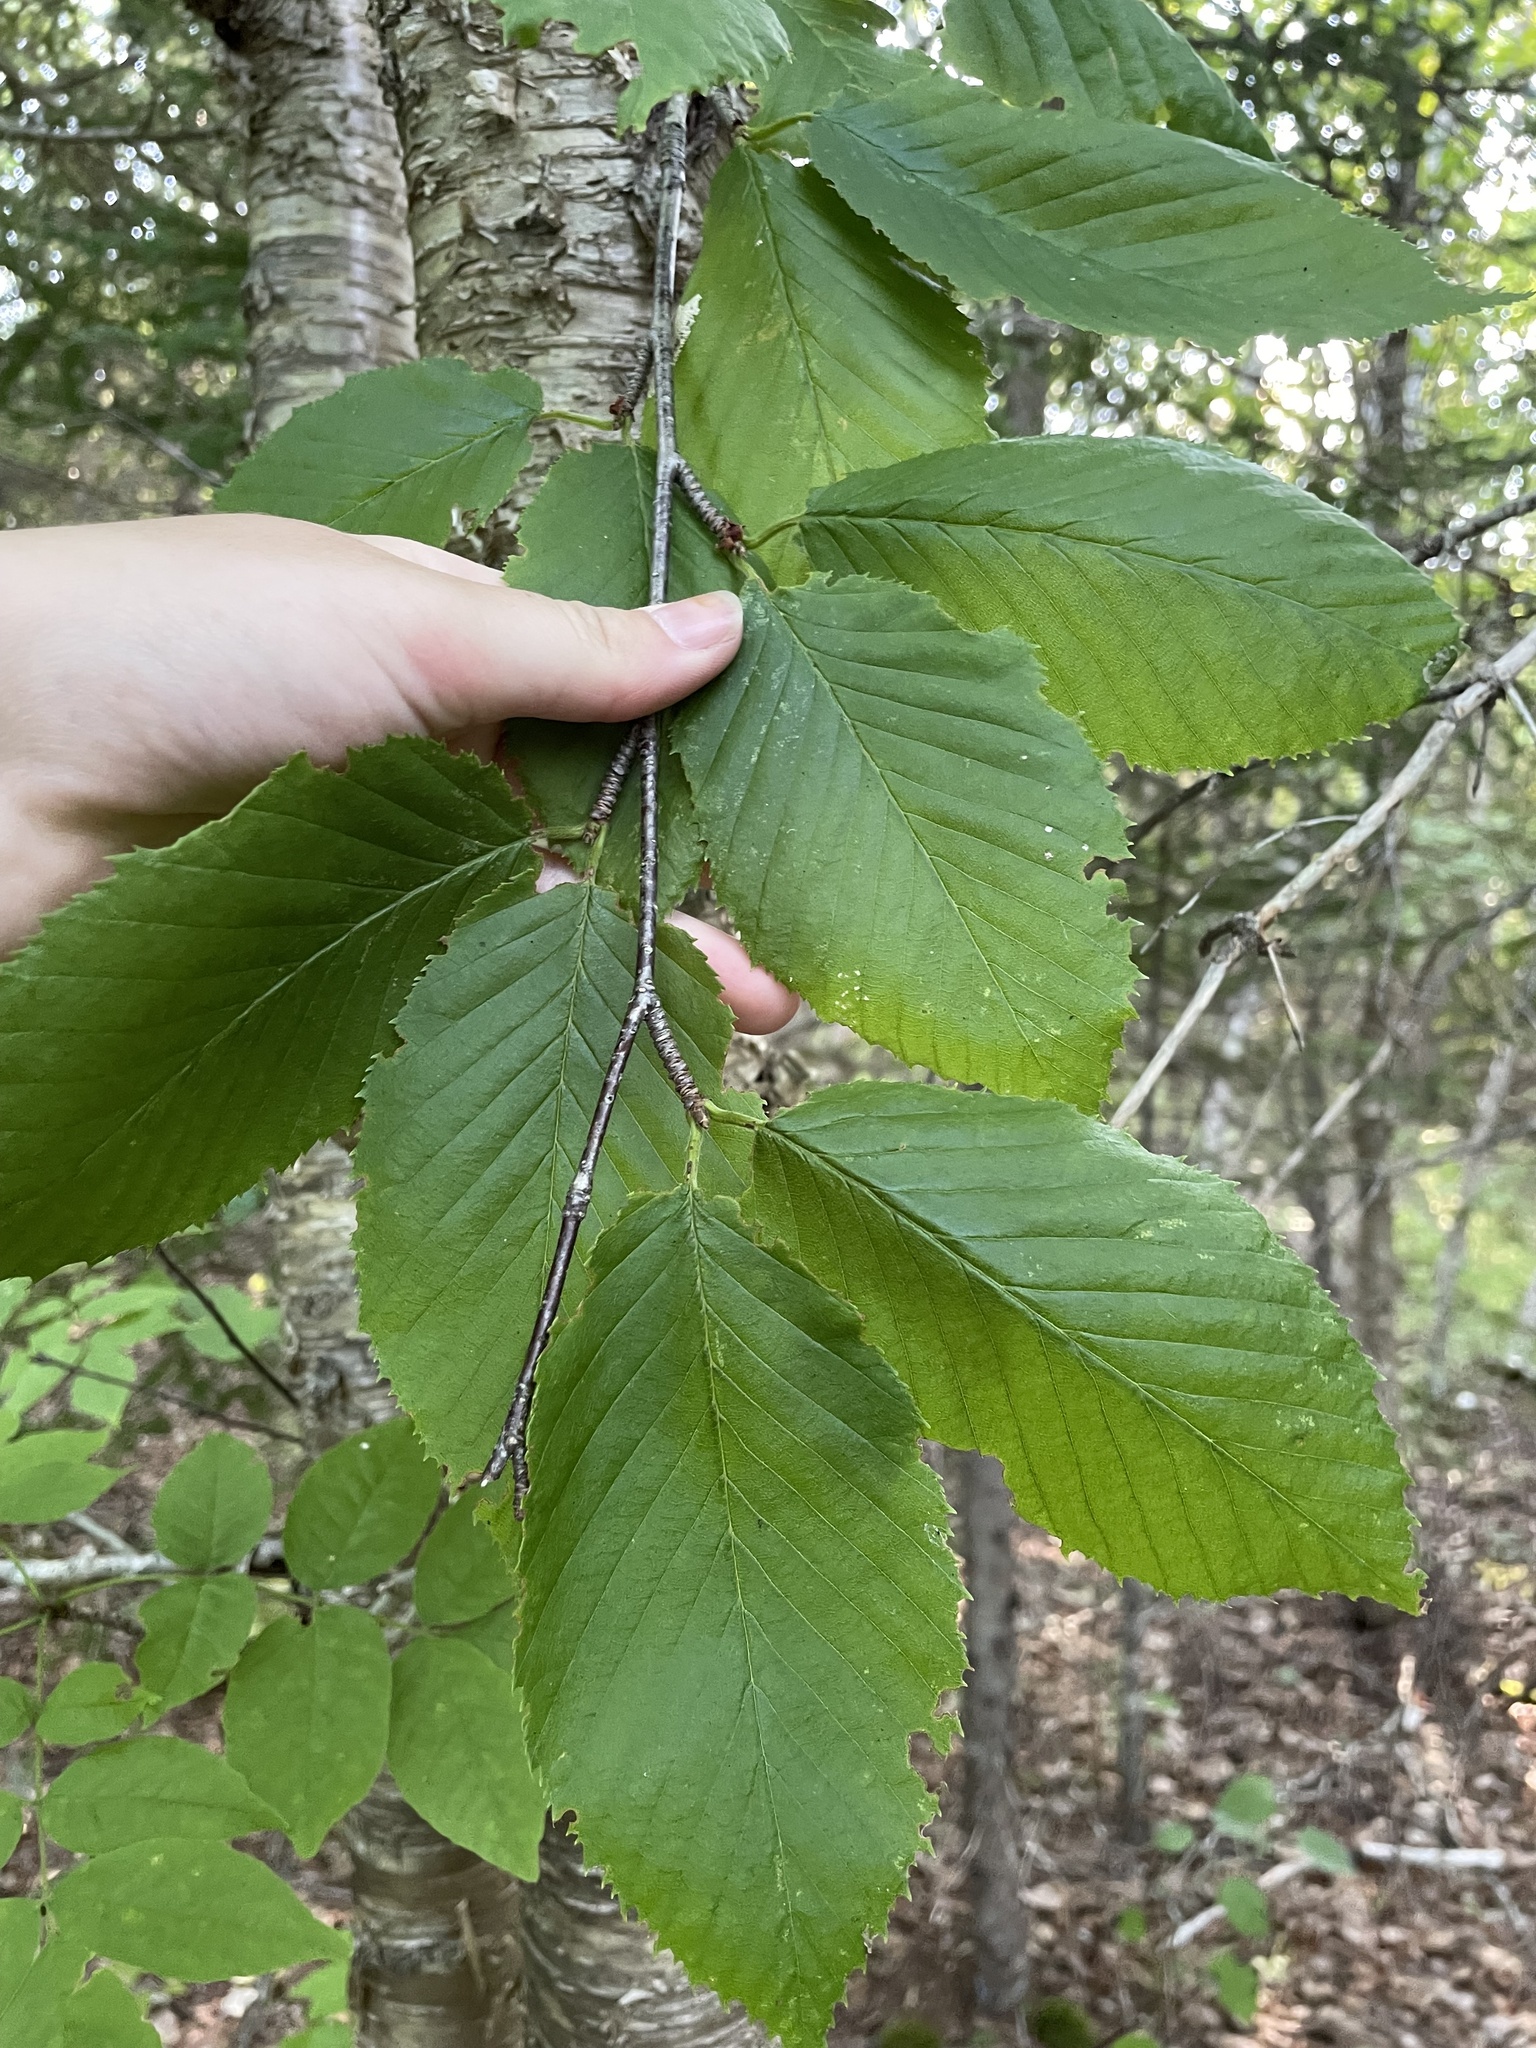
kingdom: Plantae
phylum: Tracheophyta
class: Magnoliopsida
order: Fagales
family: Betulaceae
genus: Betula
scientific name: Betula alleghaniensis
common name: Yellow birch
